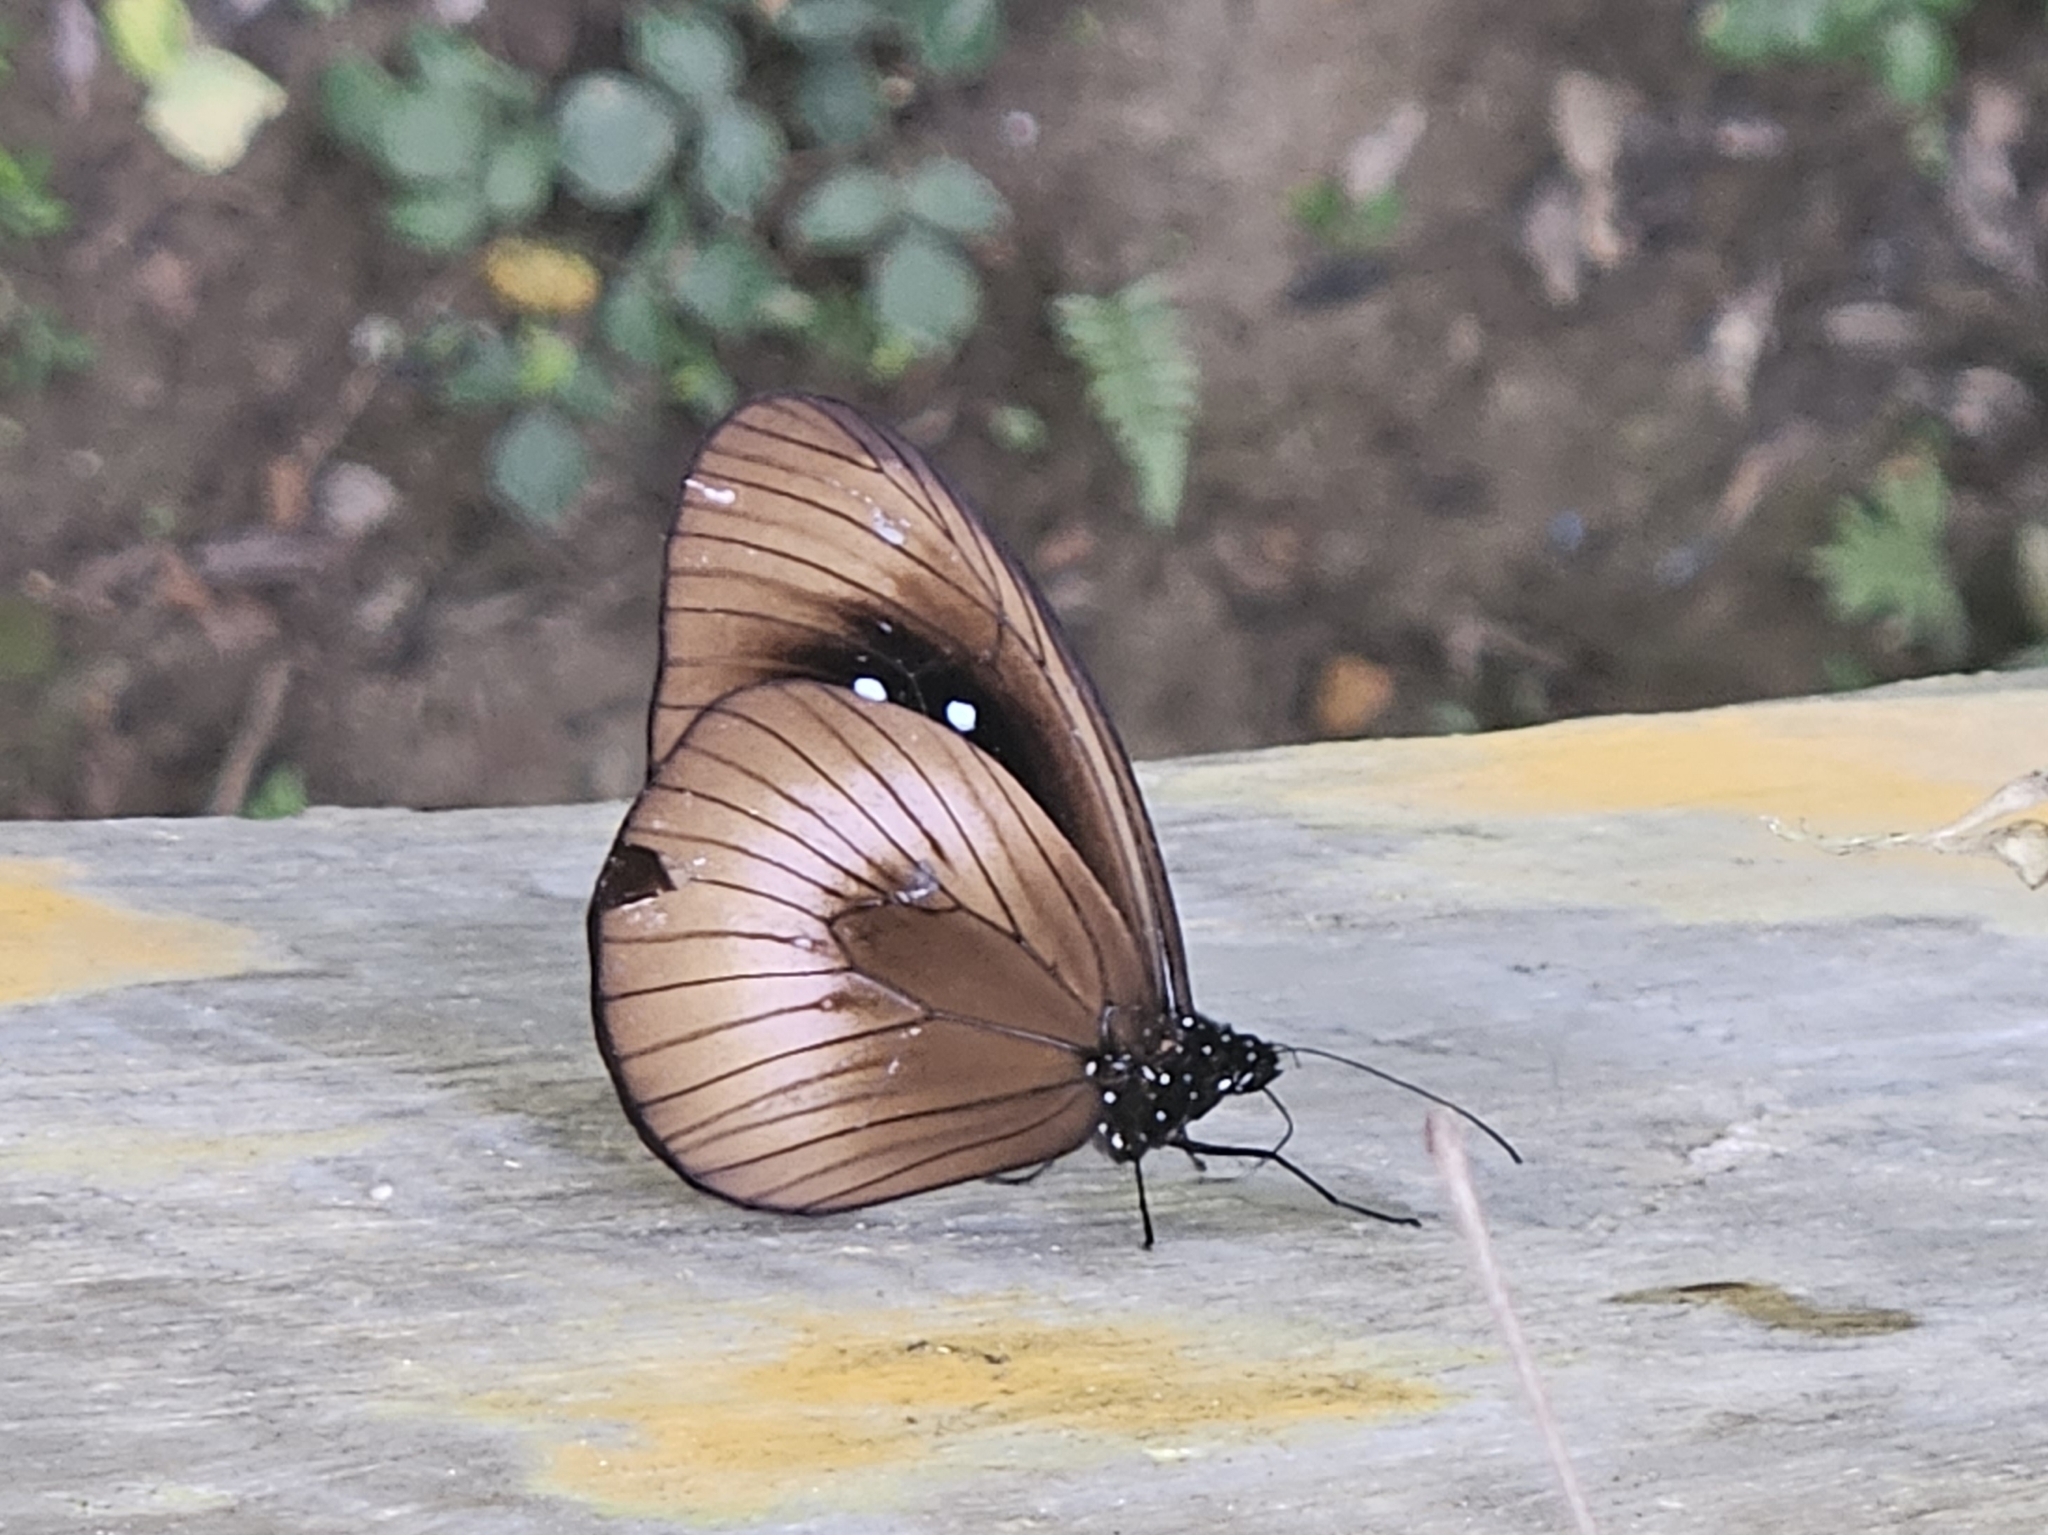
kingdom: Animalia
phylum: Arthropoda
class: Insecta
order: Lepidoptera
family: Nymphalidae
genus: Euploea
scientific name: Euploea magou
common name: Magou
